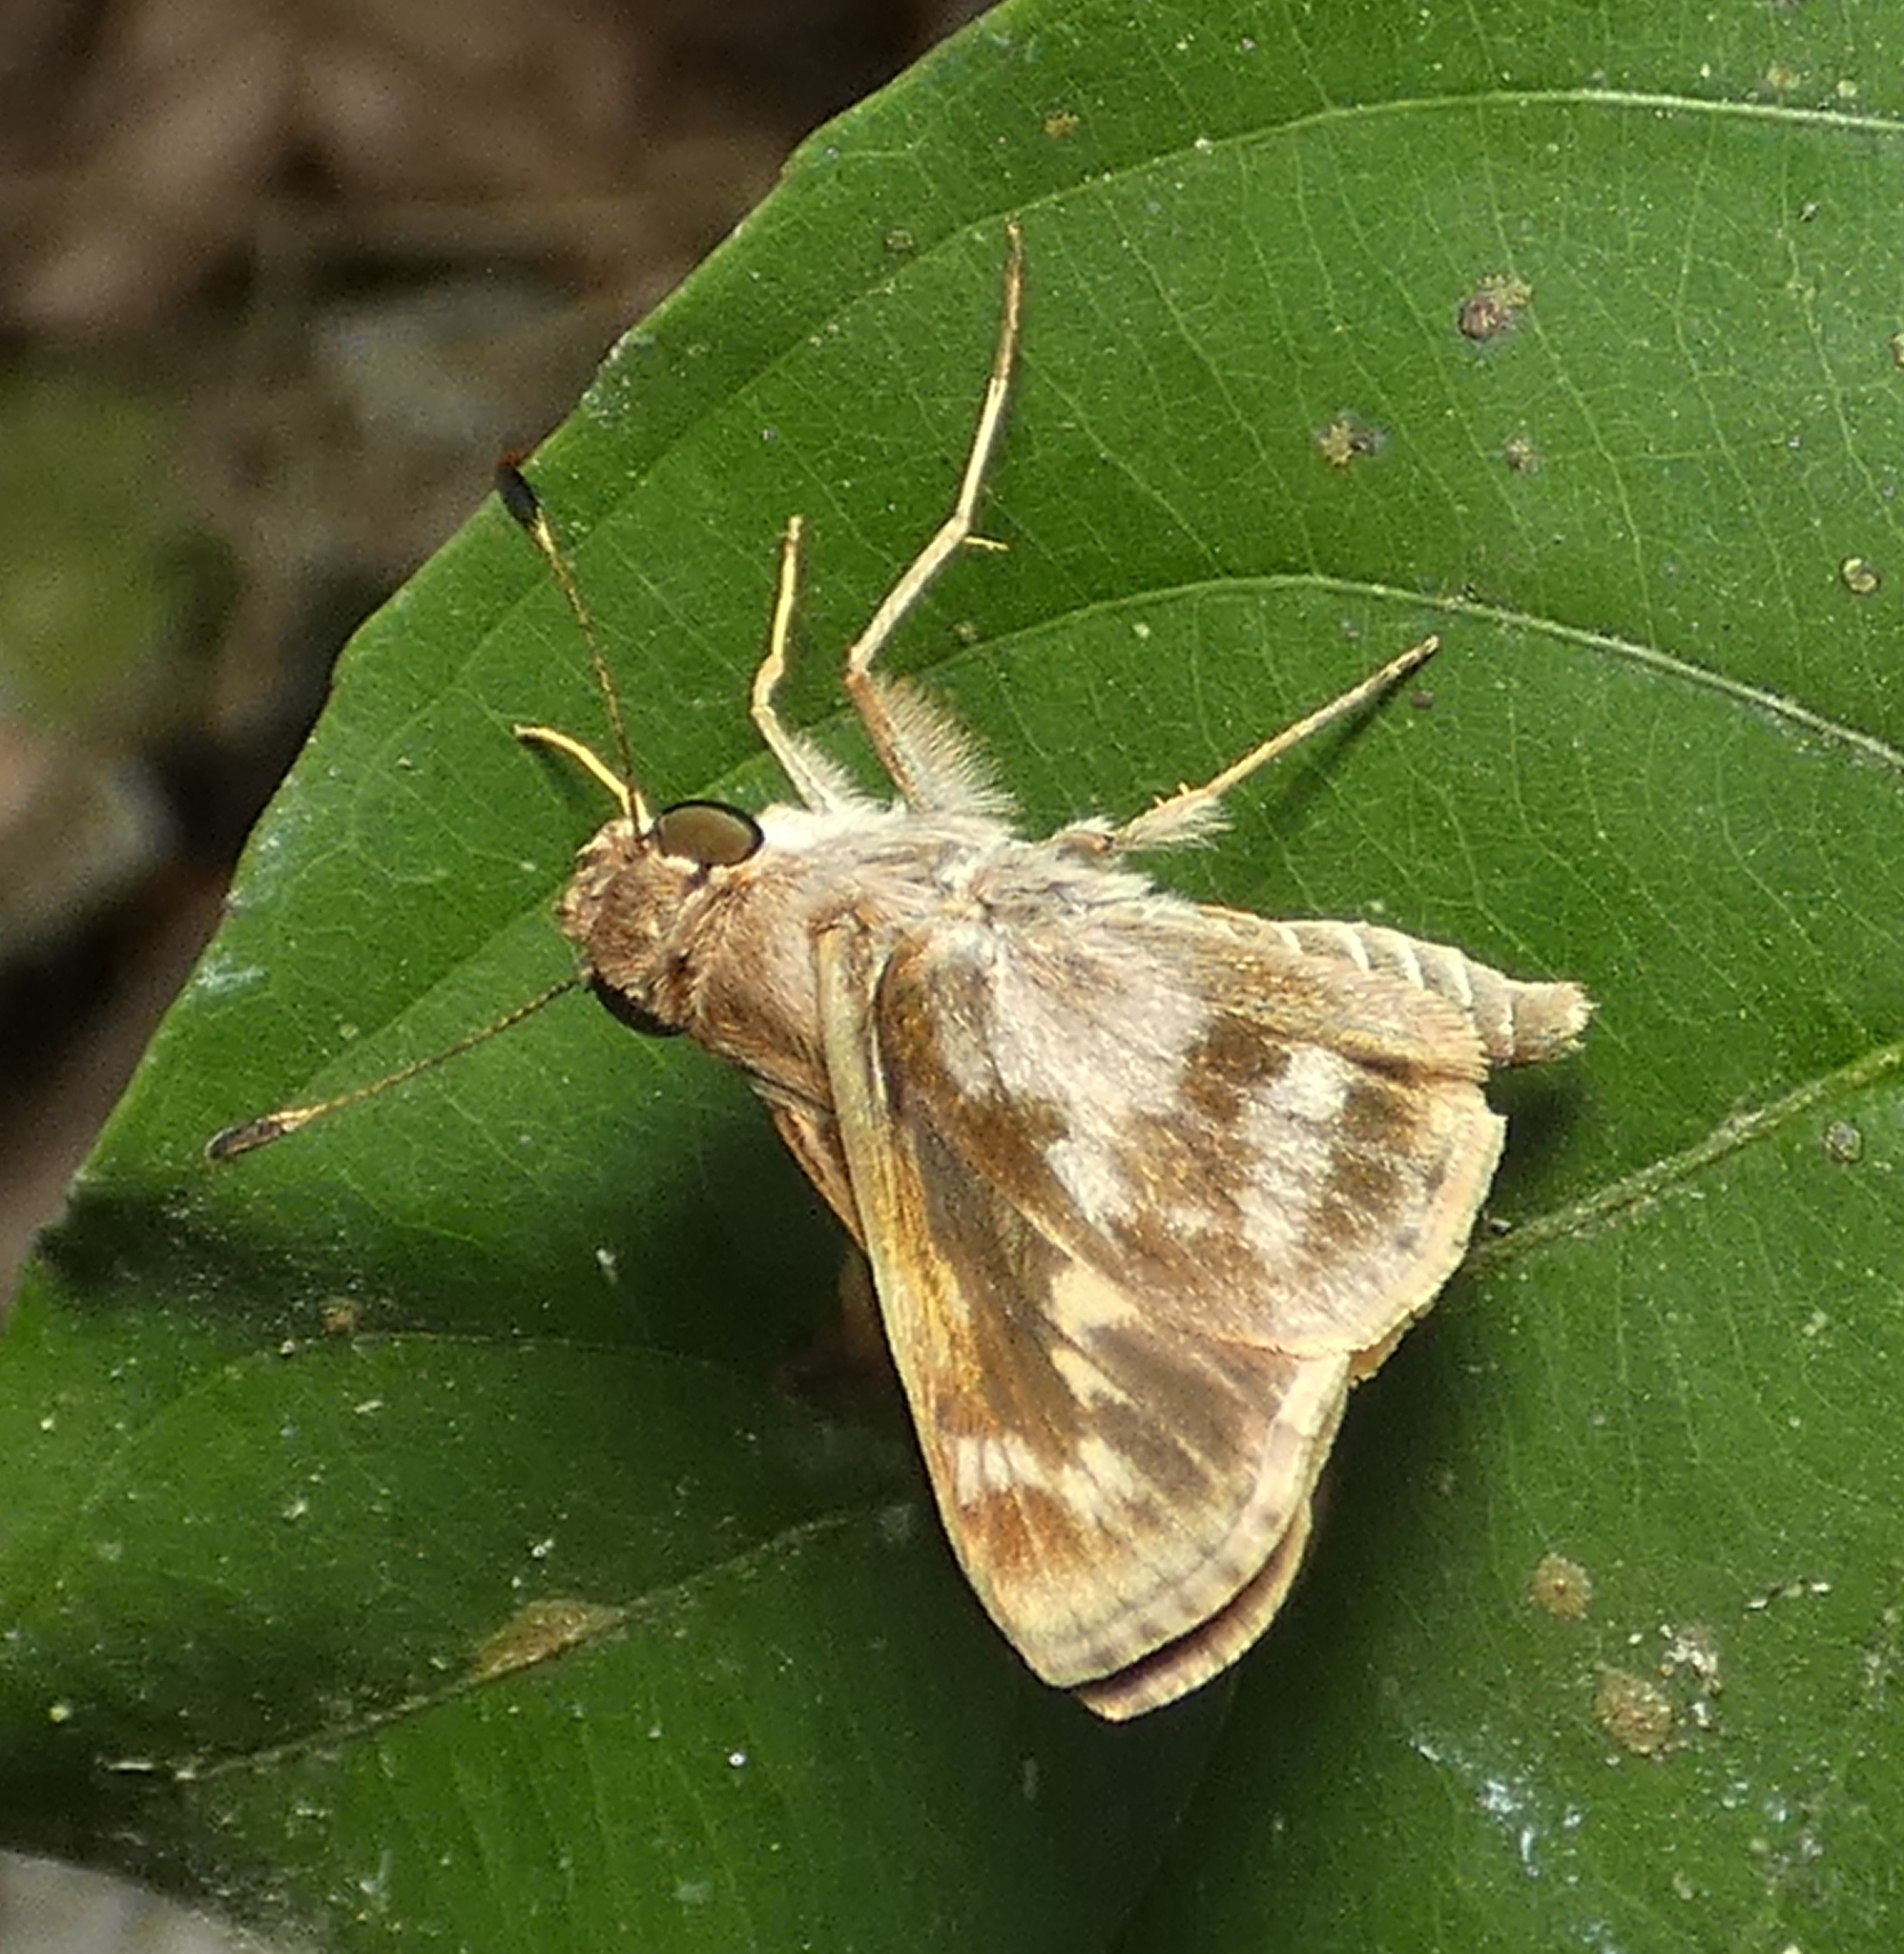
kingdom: Animalia
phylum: Arthropoda
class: Insecta
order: Lepidoptera
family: Hesperiidae
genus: Pompeius
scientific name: Pompeius pompeius
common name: Pompeius skipper
